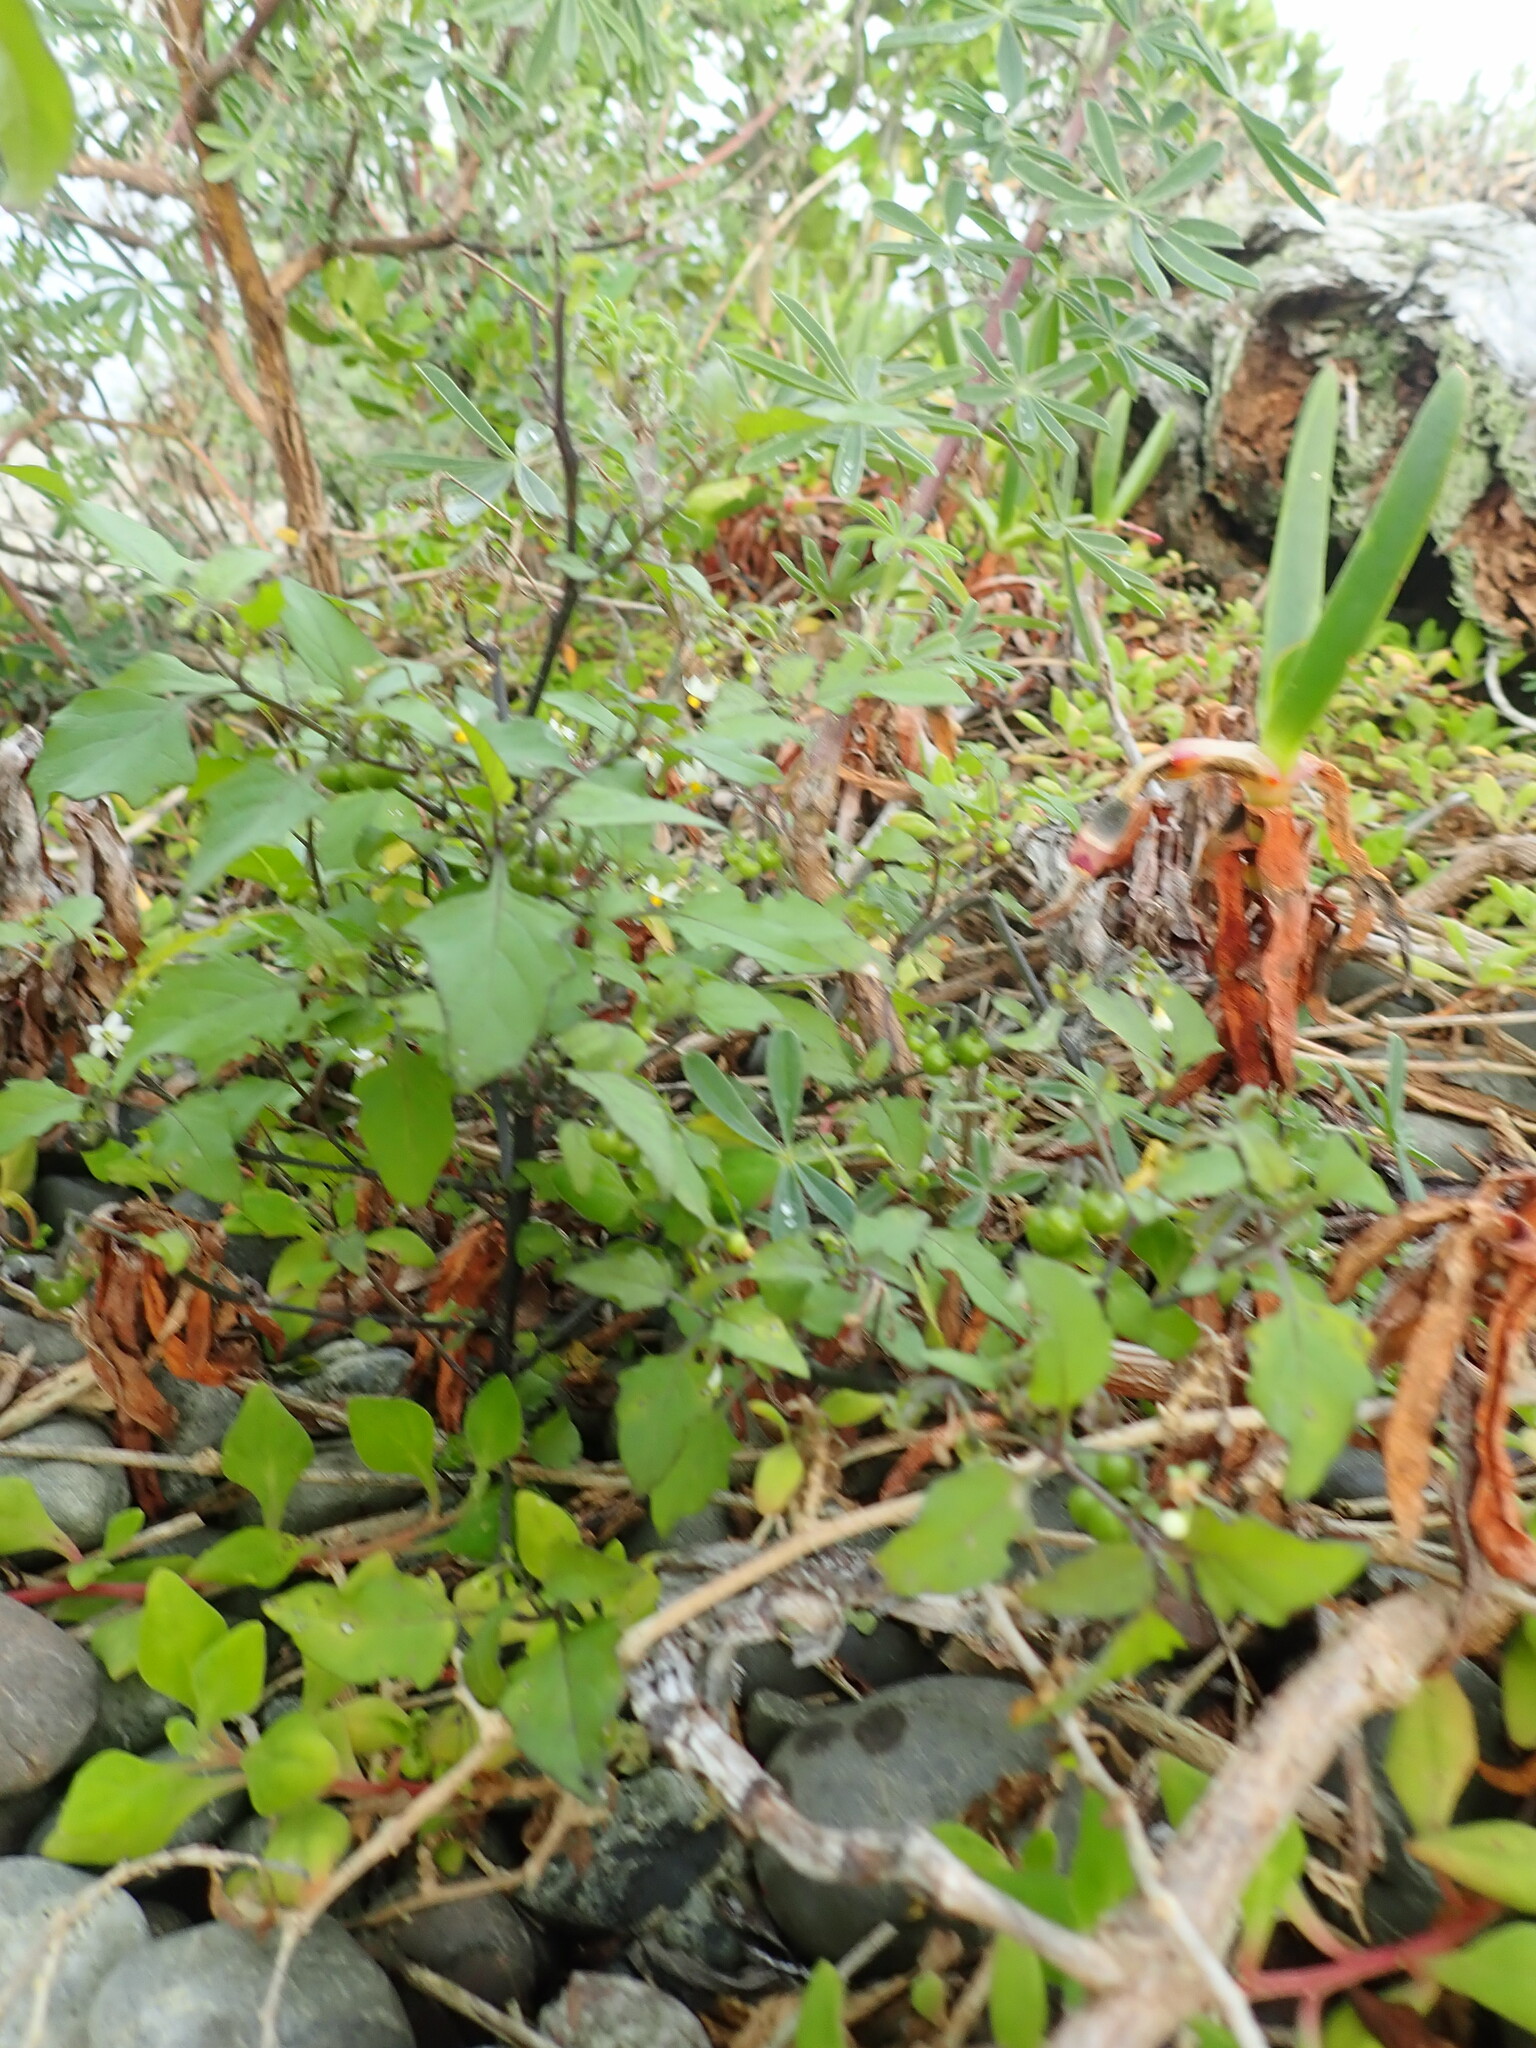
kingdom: Plantae
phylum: Tracheophyta
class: Magnoliopsida
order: Solanales
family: Solanaceae
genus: Solanum
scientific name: Solanum chenopodioides
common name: Tall nightshade
